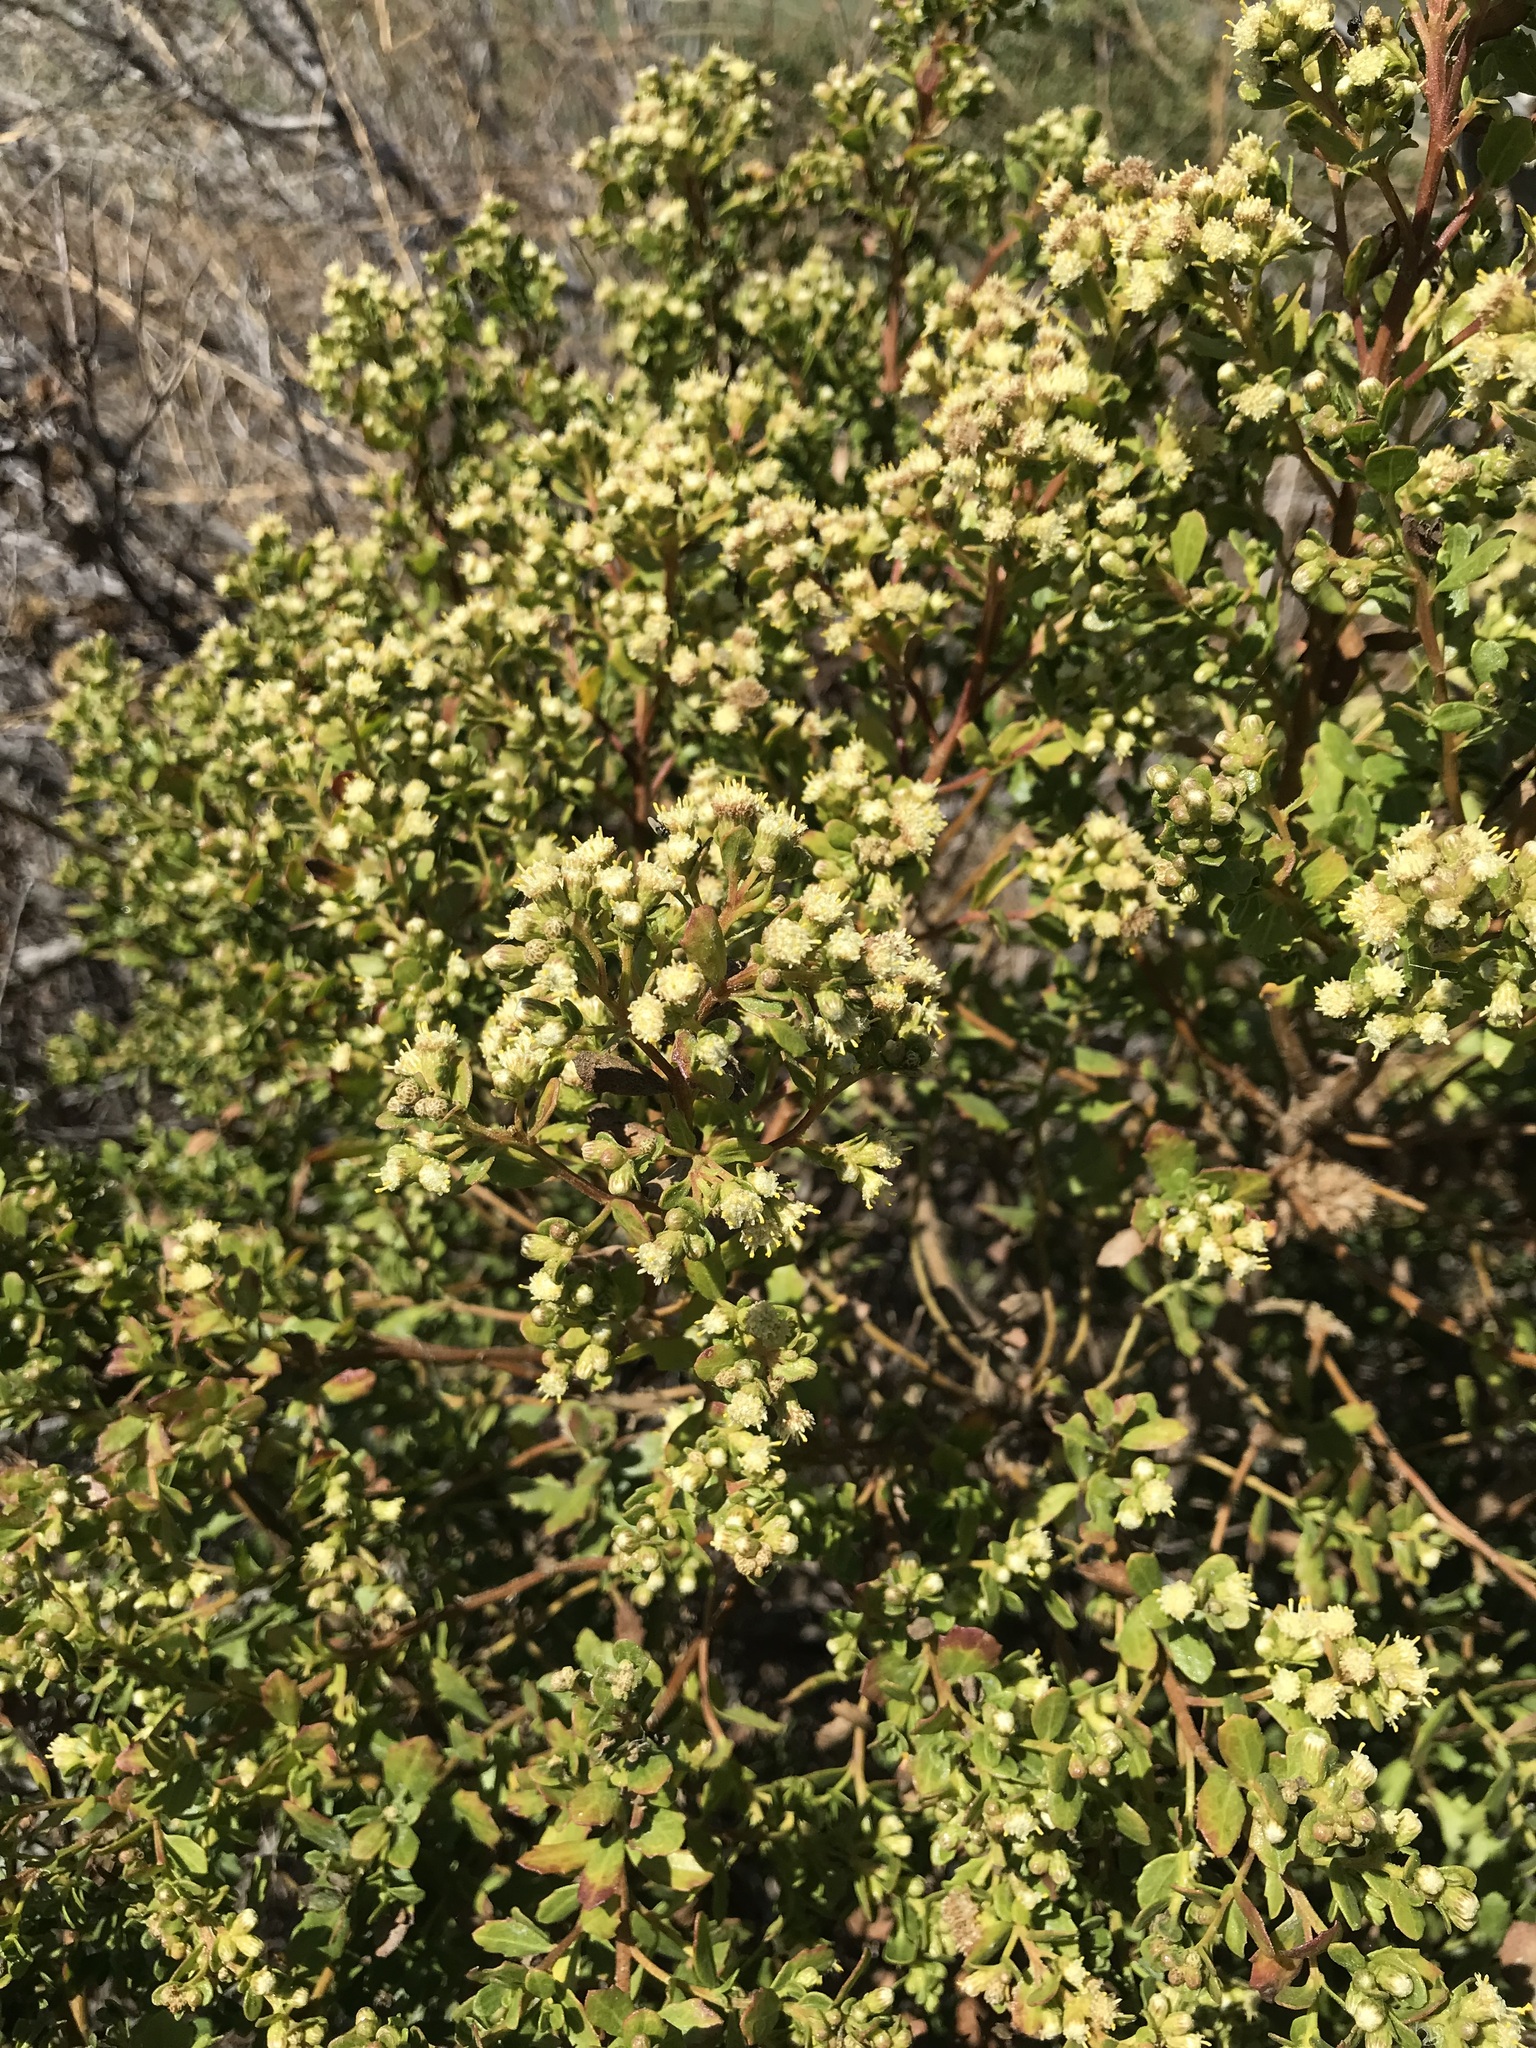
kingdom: Plantae
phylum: Tracheophyta
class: Magnoliopsida
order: Asterales
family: Asteraceae
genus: Baccharis
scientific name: Baccharis pilularis
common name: Coyotebrush
